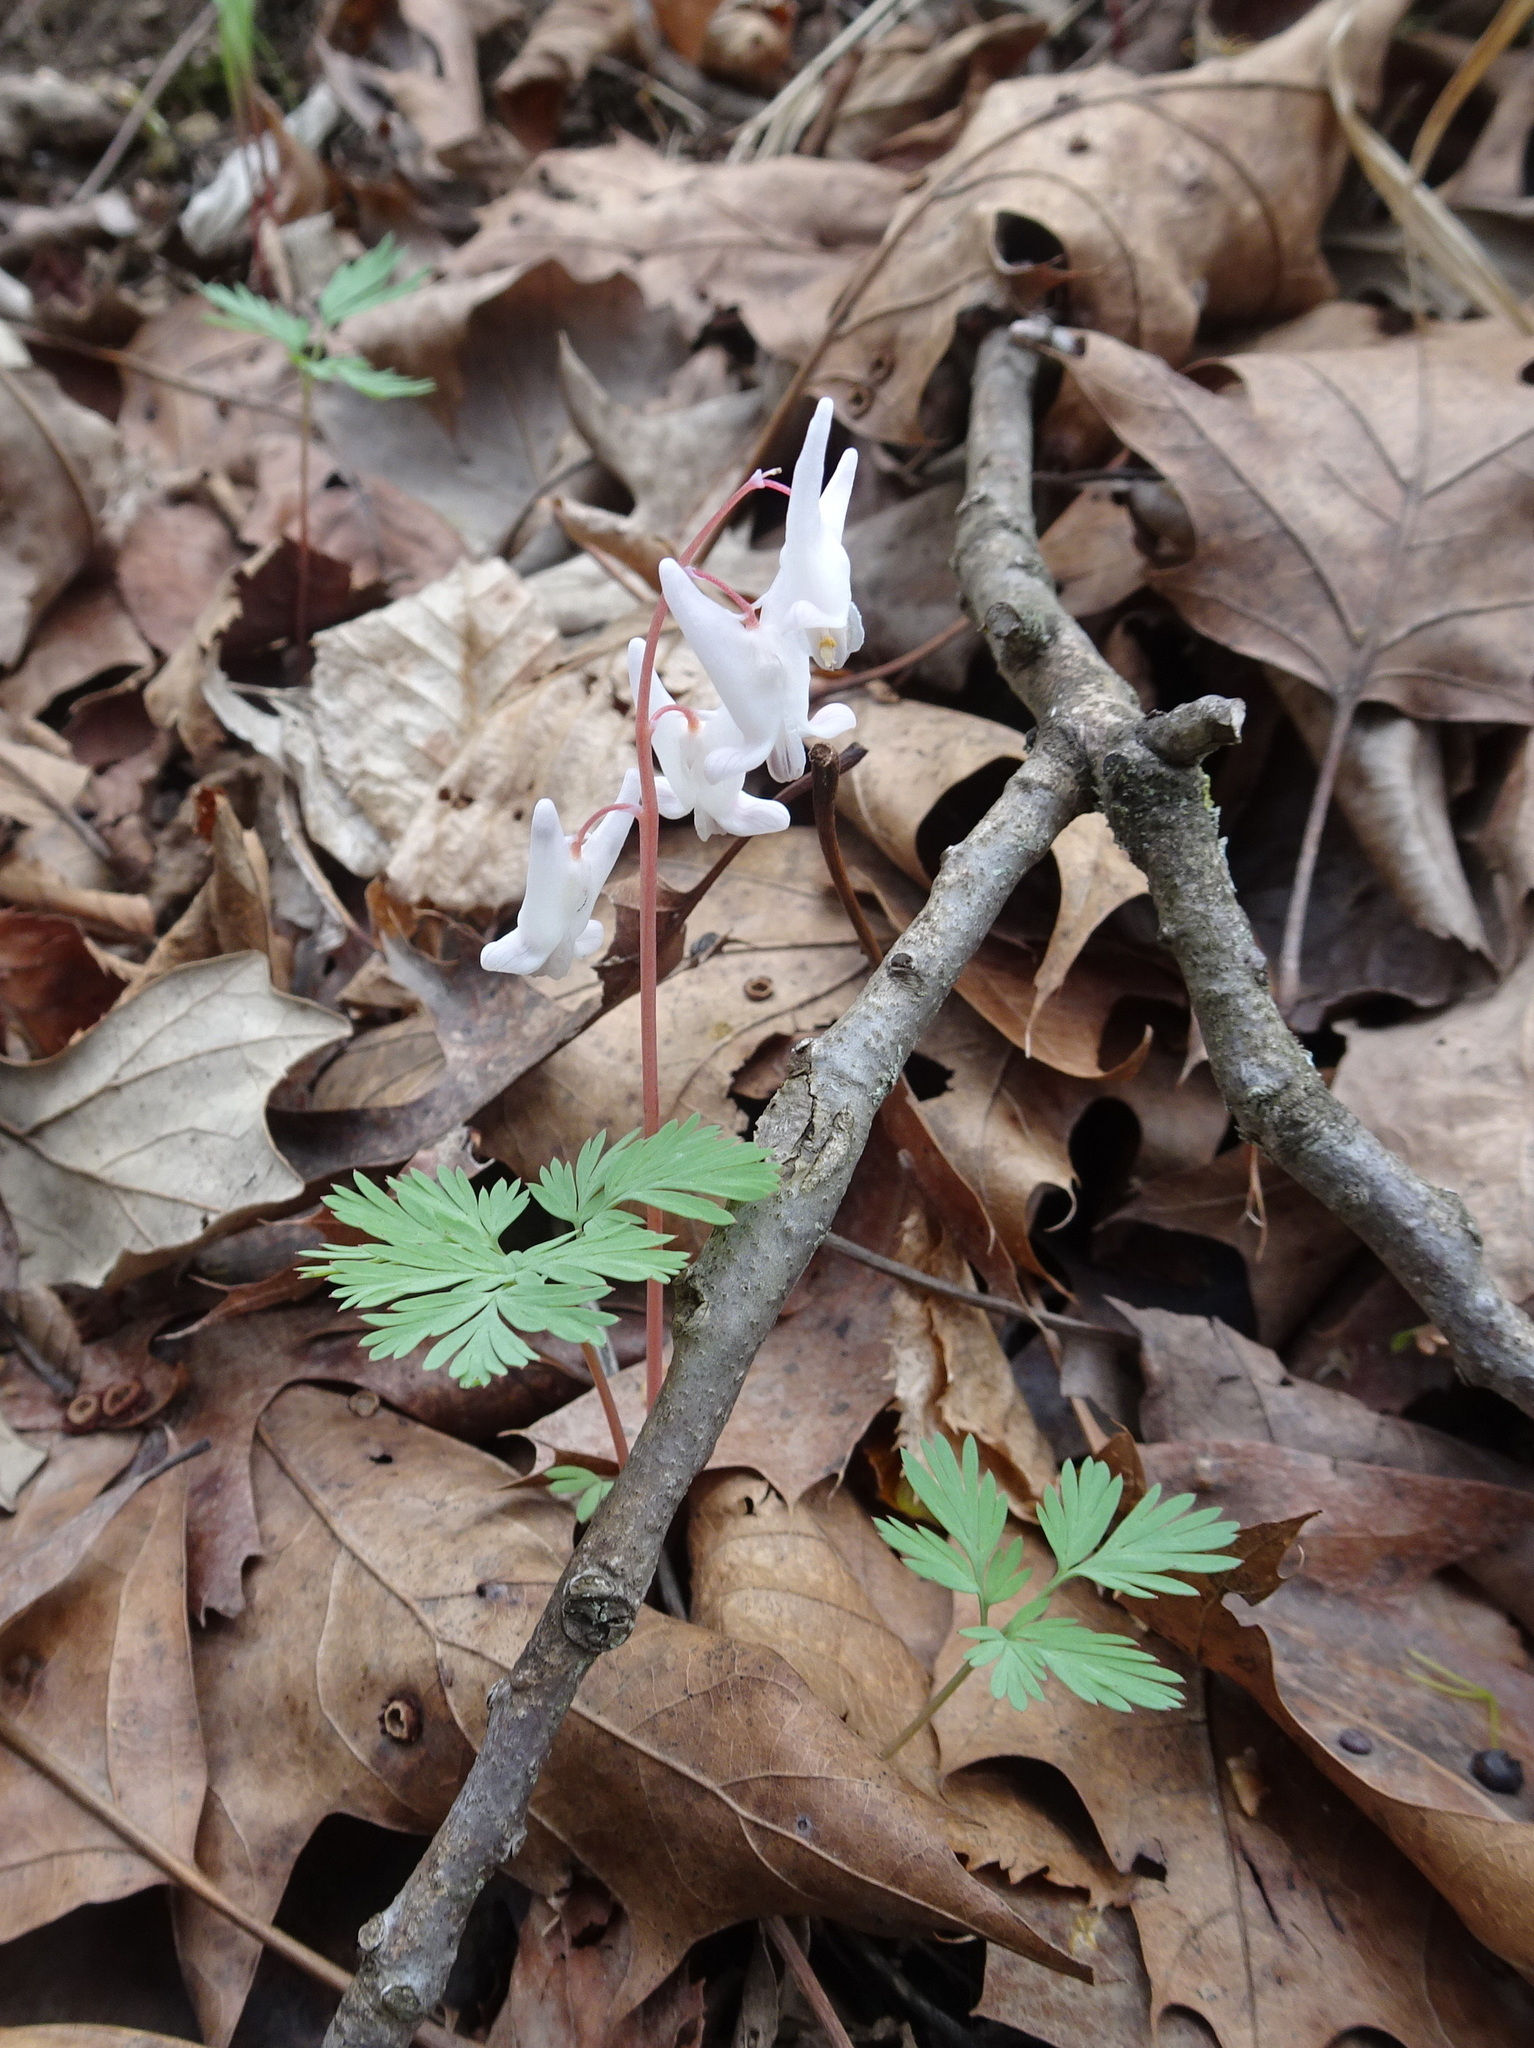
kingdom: Plantae
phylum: Tracheophyta
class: Magnoliopsida
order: Ranunculales
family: Papaveraceae
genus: Dicentra
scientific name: Dicentra cucullaria
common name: Dutchman's breeches
